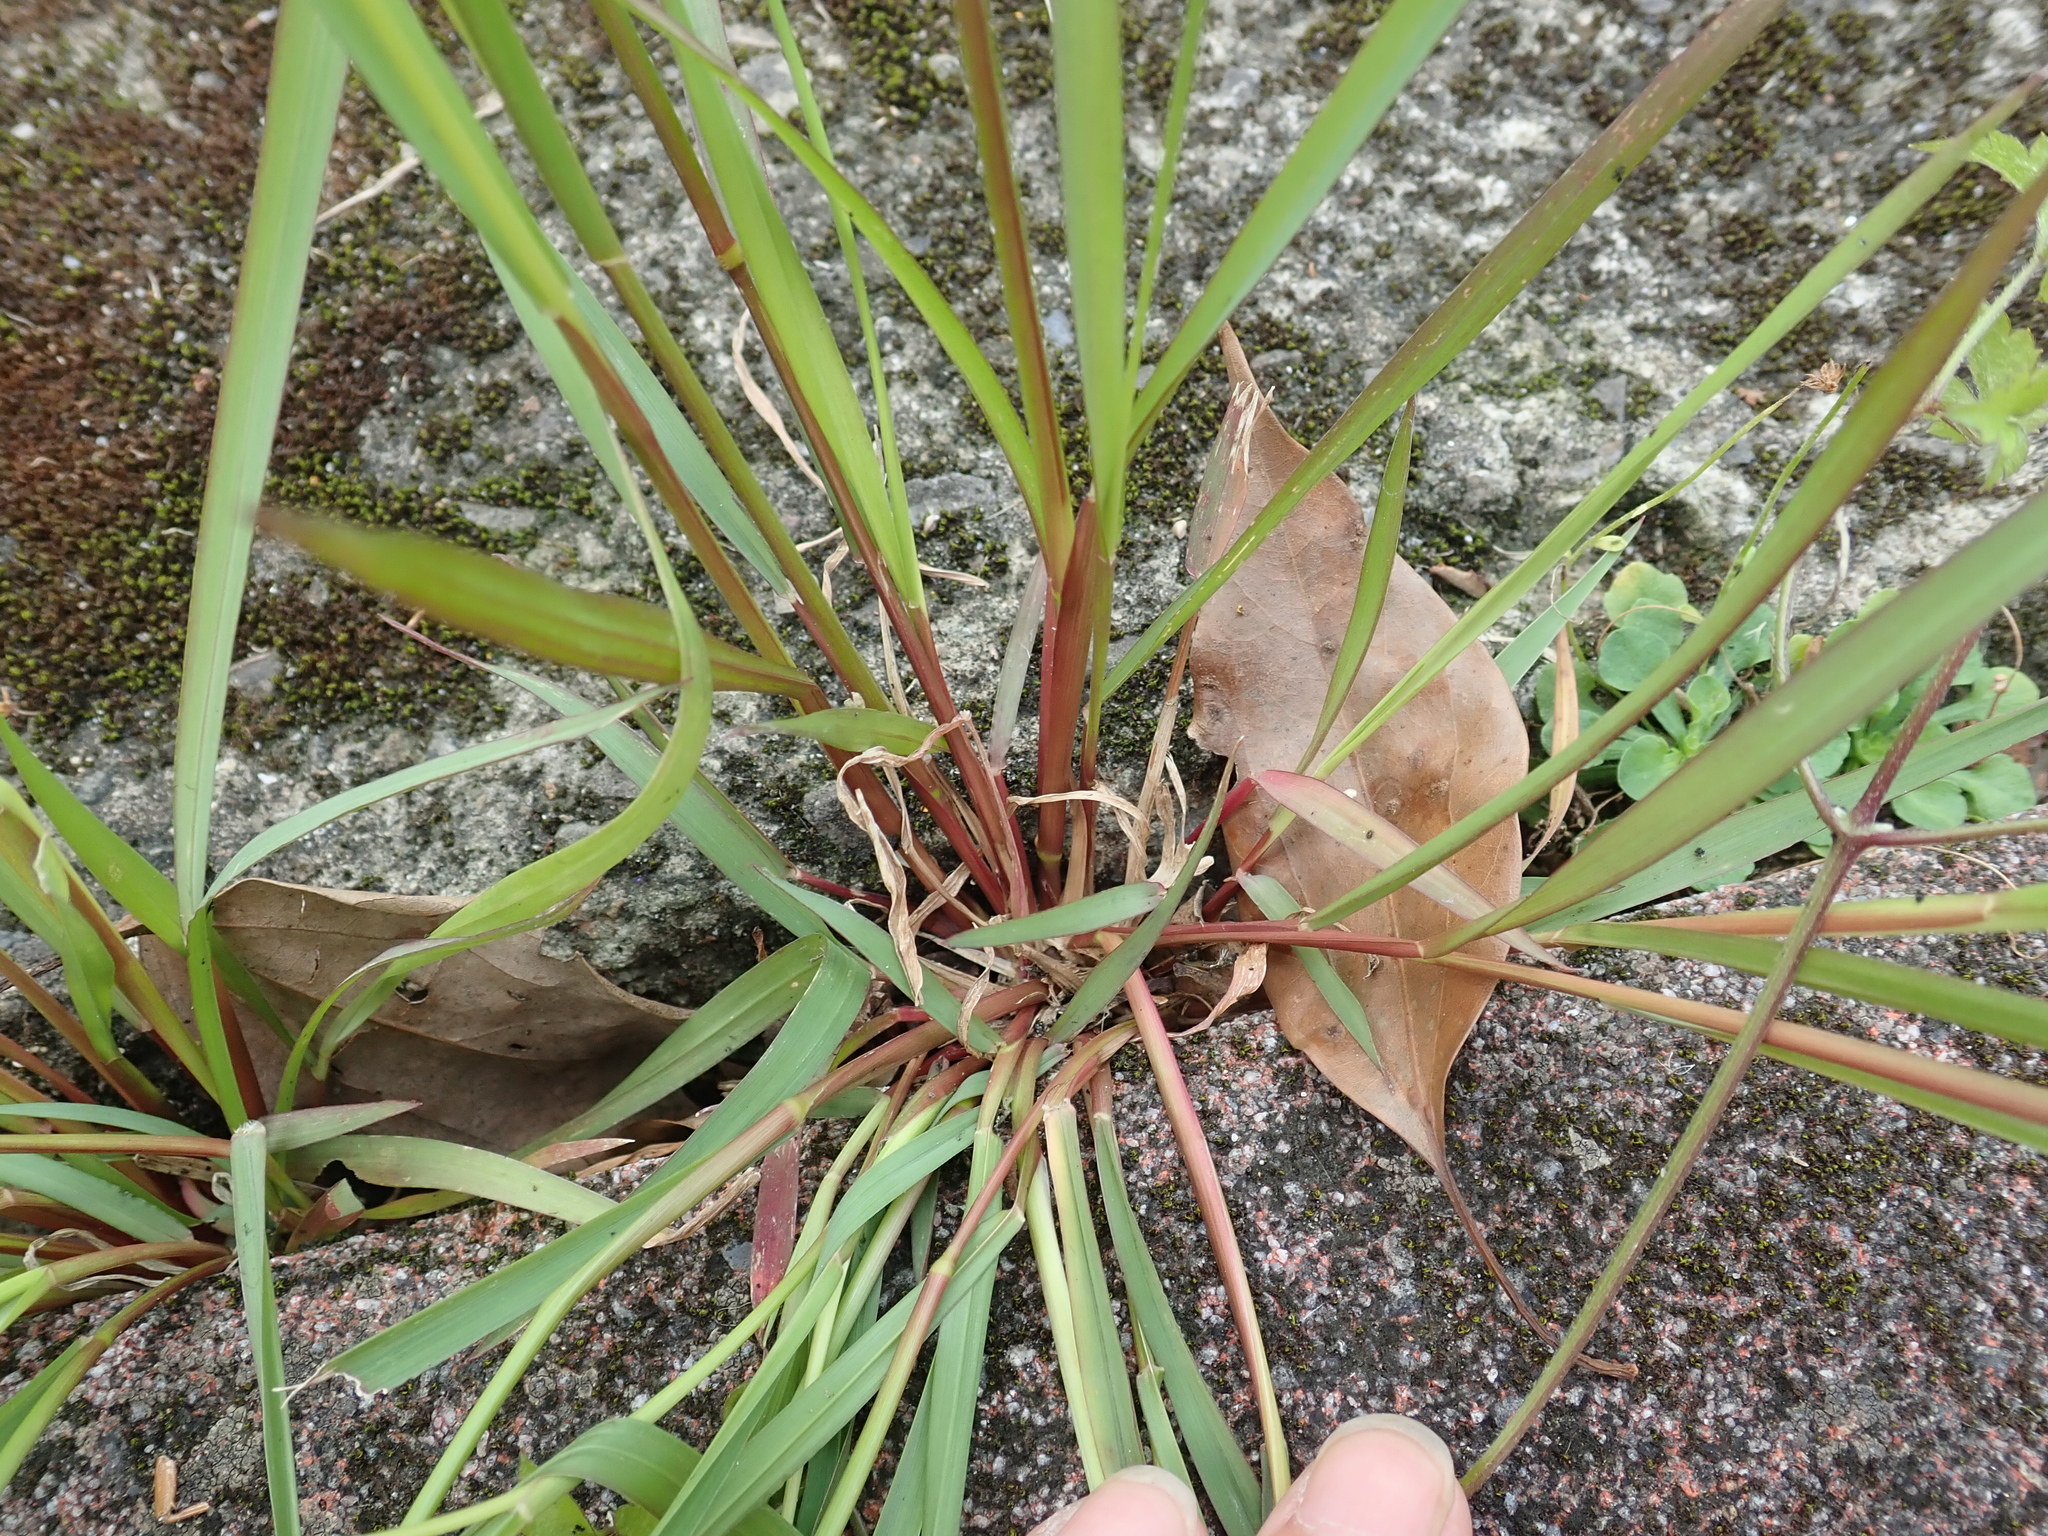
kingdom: Plantae
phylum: Tracheophyta
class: Liliopsida
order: Poales
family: Poaceae
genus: Setaria
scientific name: Setaria parviflora
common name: Knotroot bristle-grass
